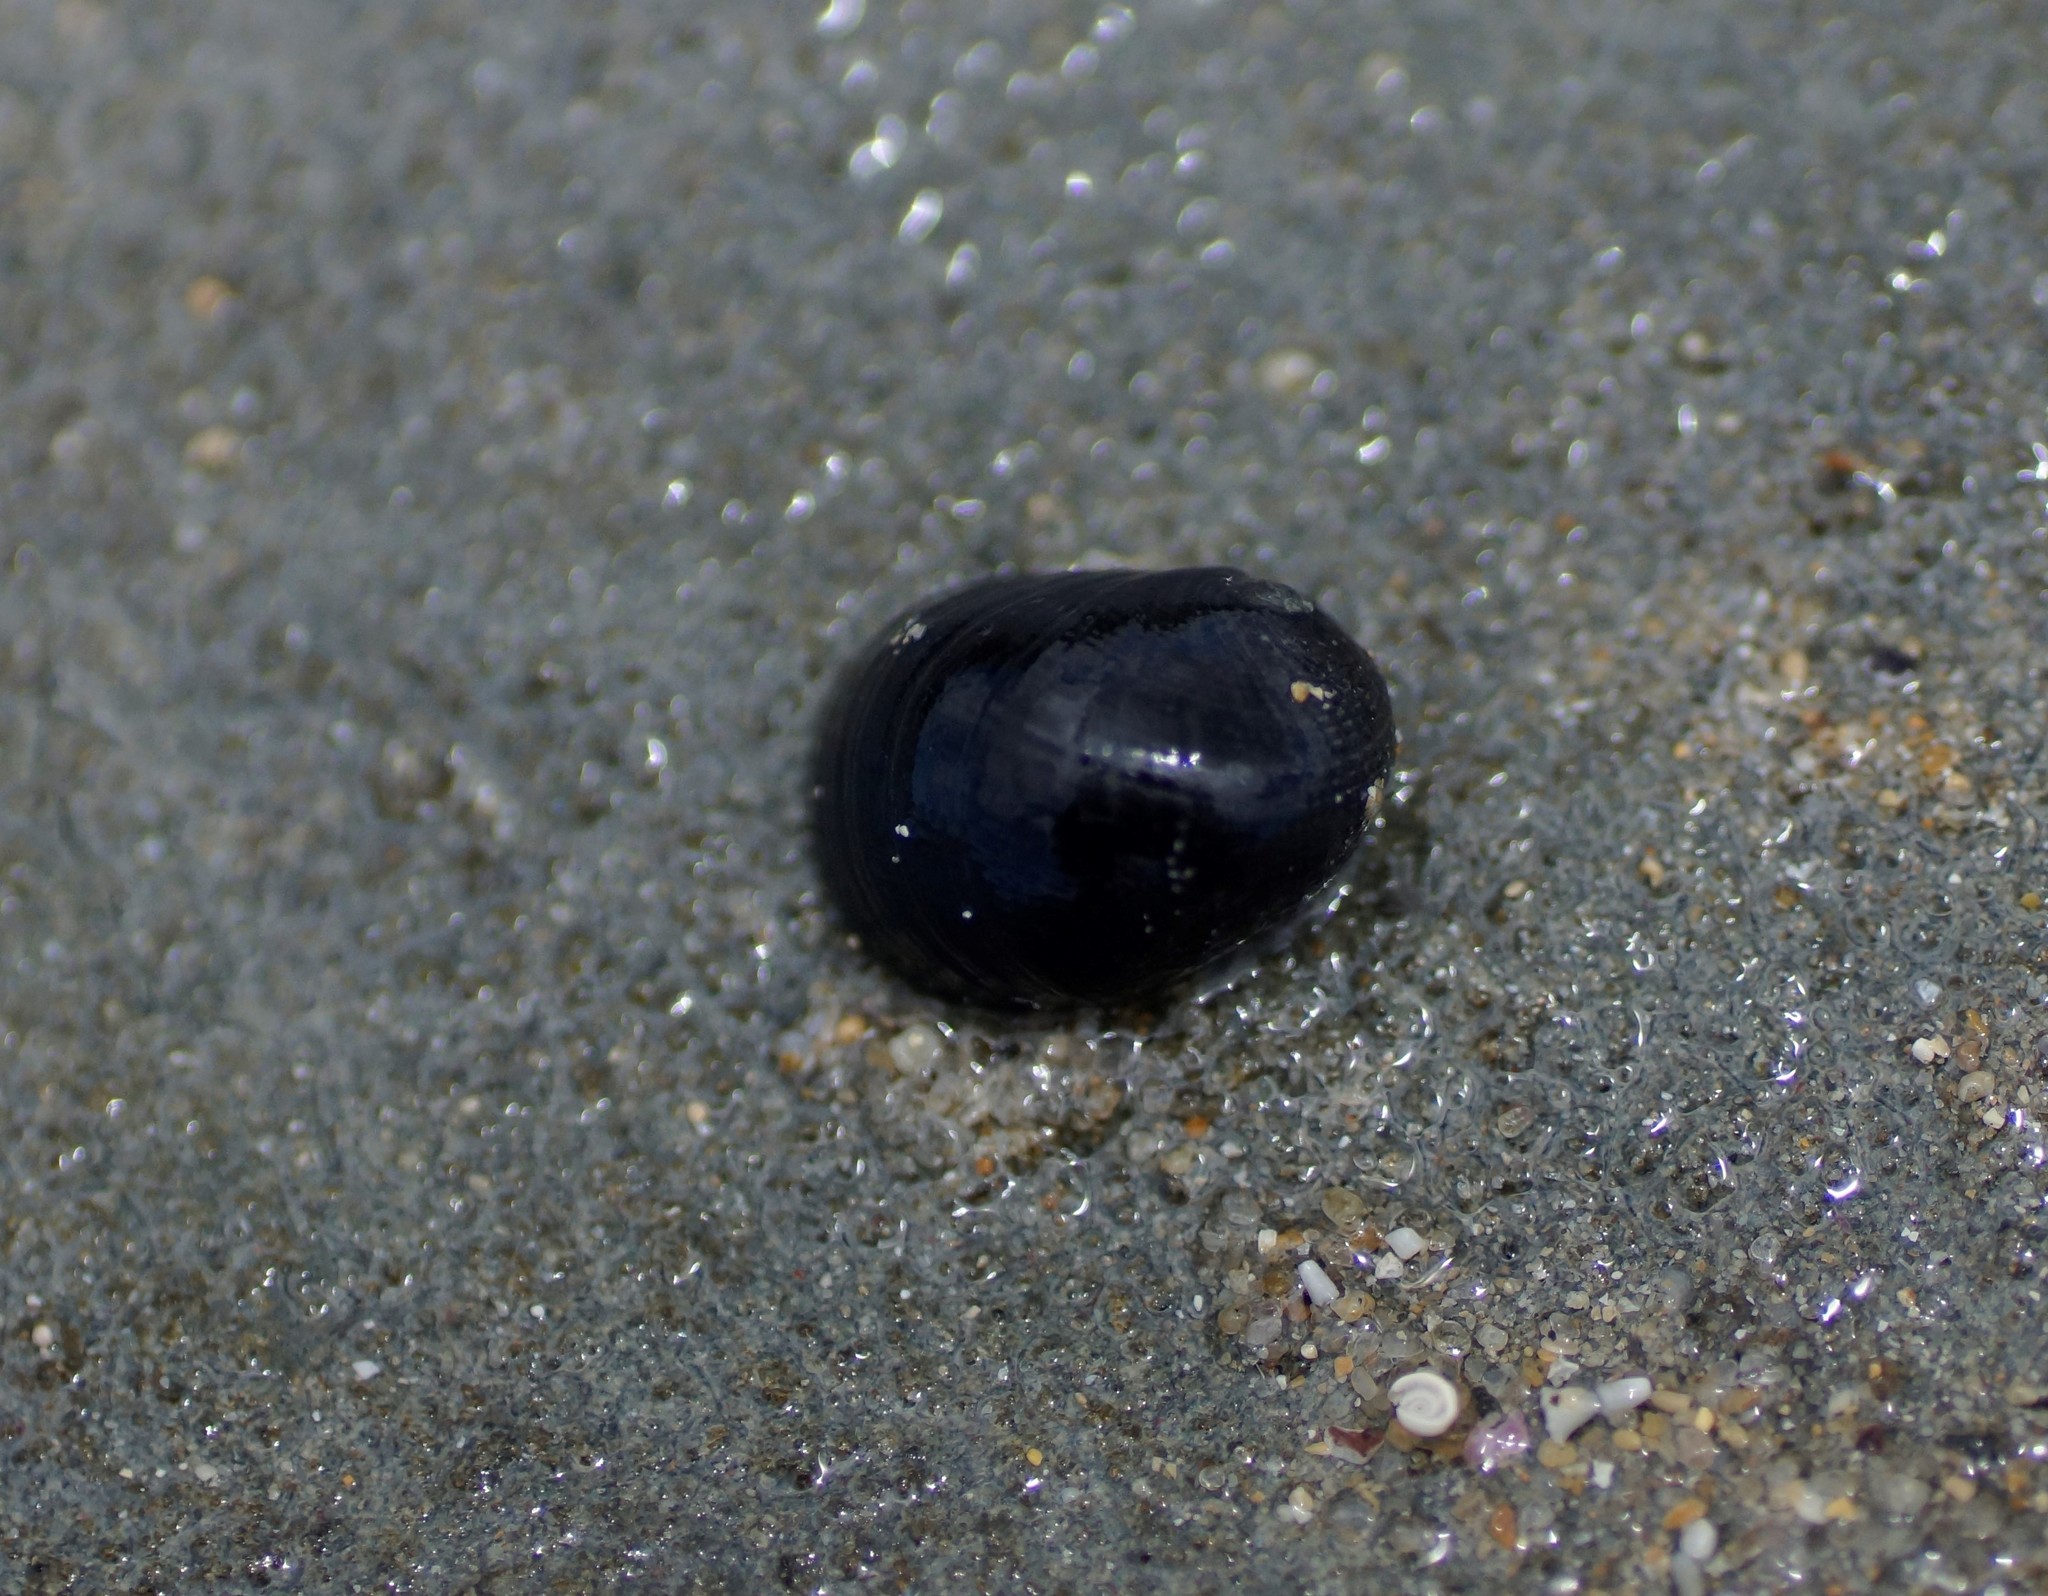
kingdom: Animalia
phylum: Mollusca
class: Gastropoda
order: Cycloneritida
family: Neritidae
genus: Nerita
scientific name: Nerita atramentosa
